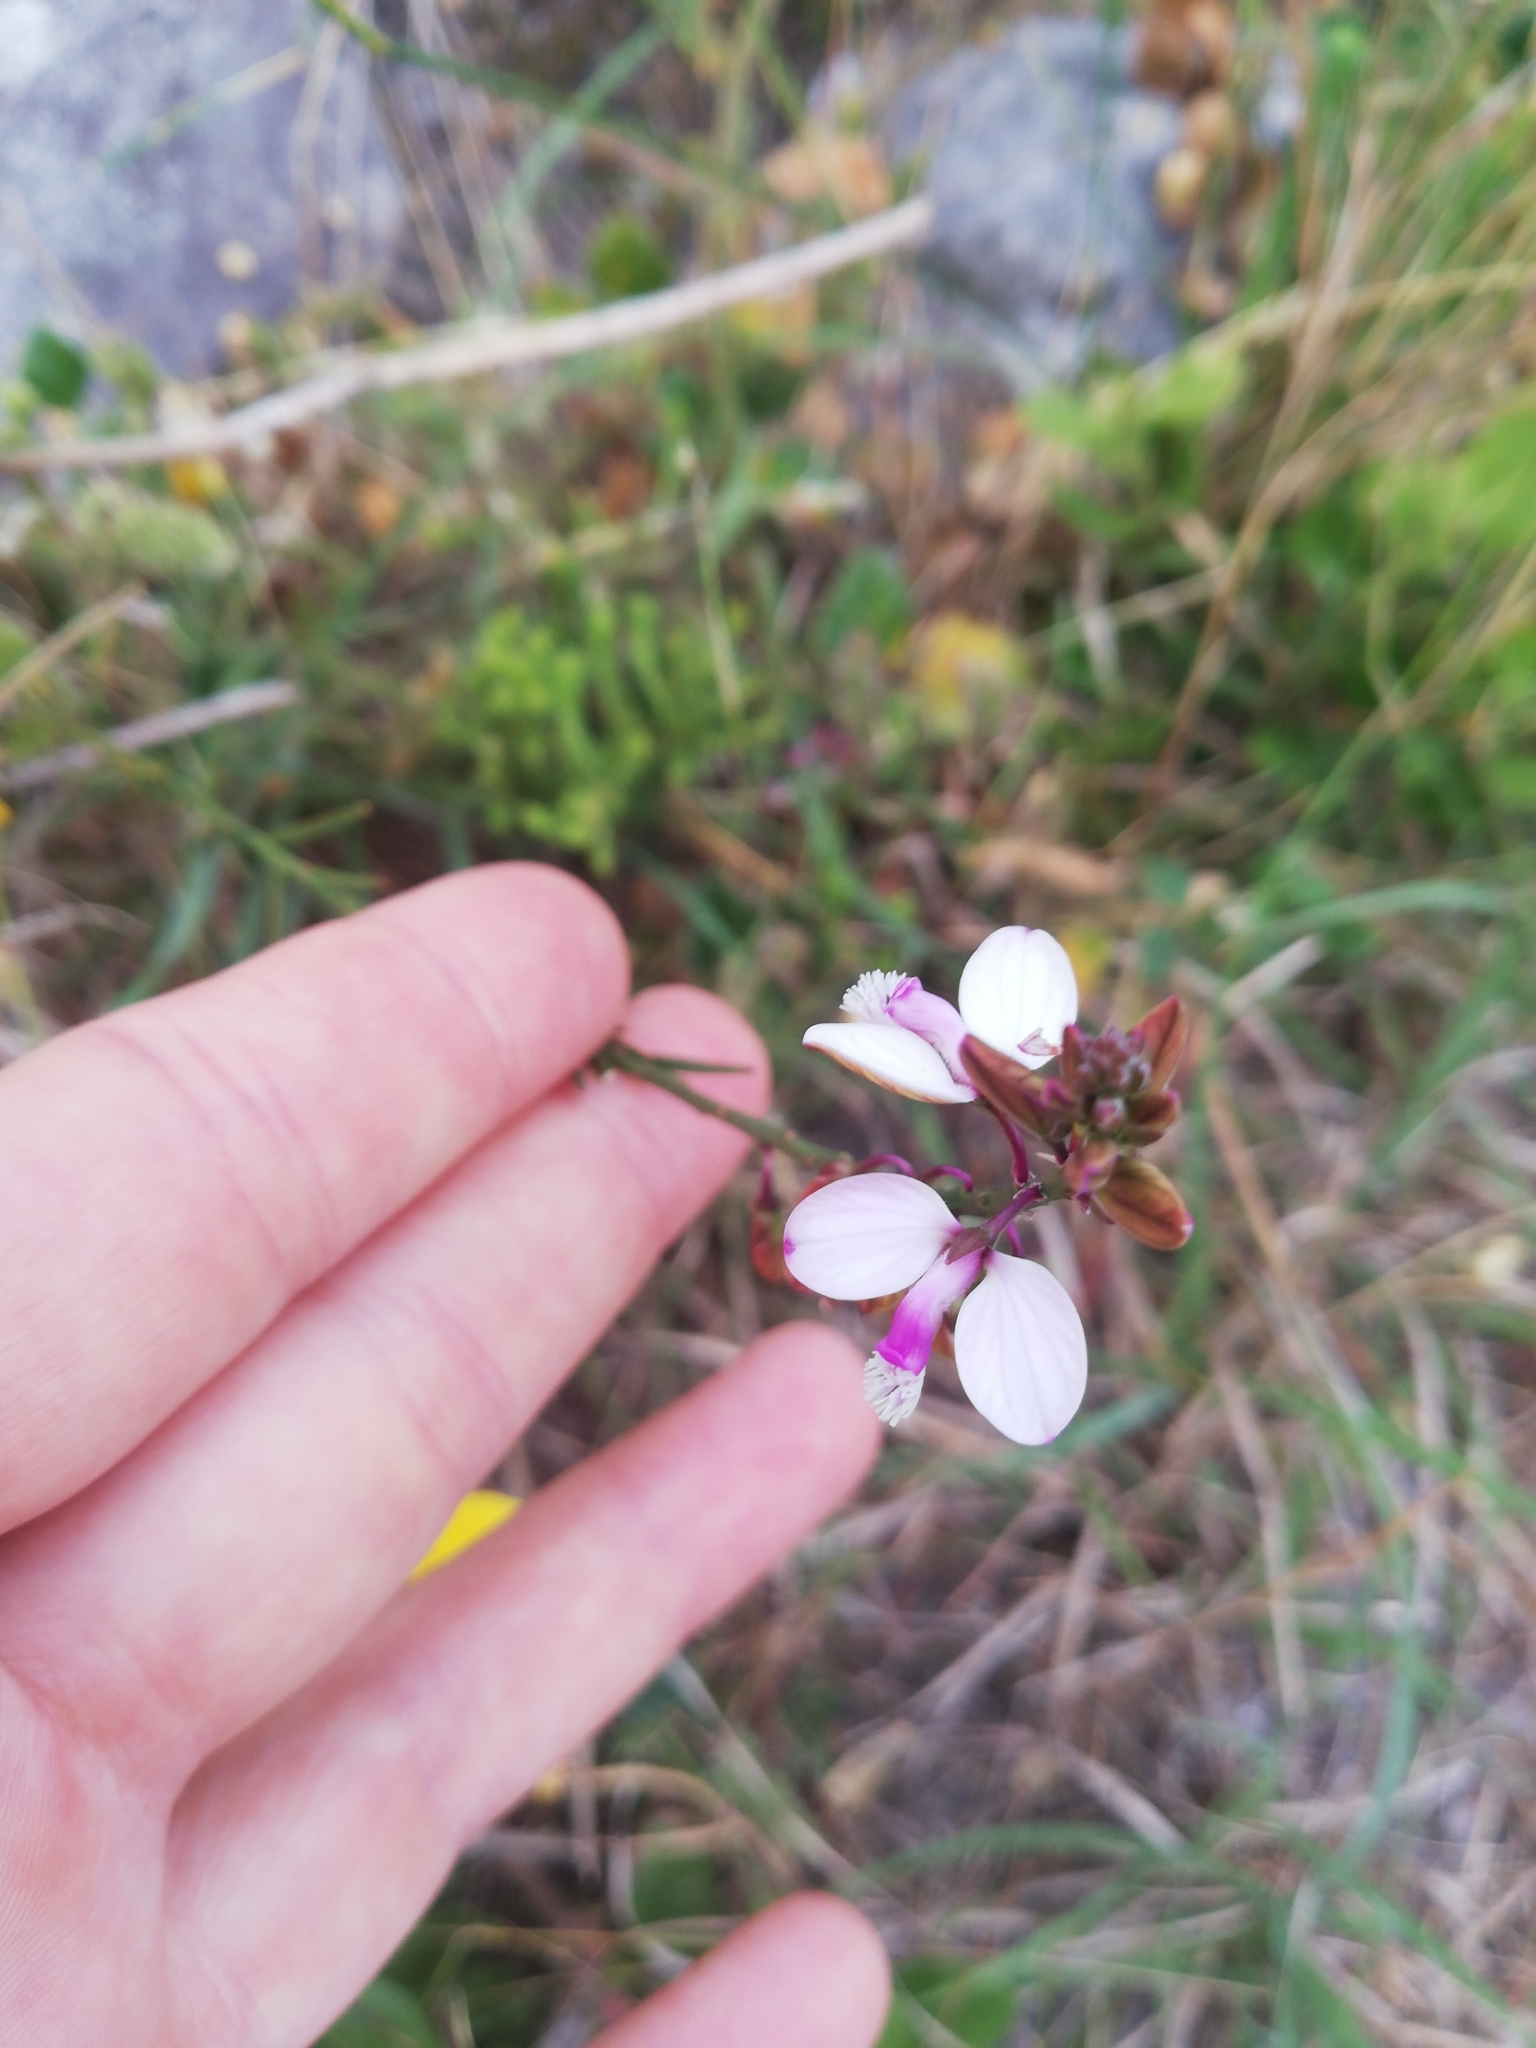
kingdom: Plantae
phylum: Tracheophyta
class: Magnoliopsida
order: Fabales
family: Polygalaceae
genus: Polygala
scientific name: Polygala garcini
